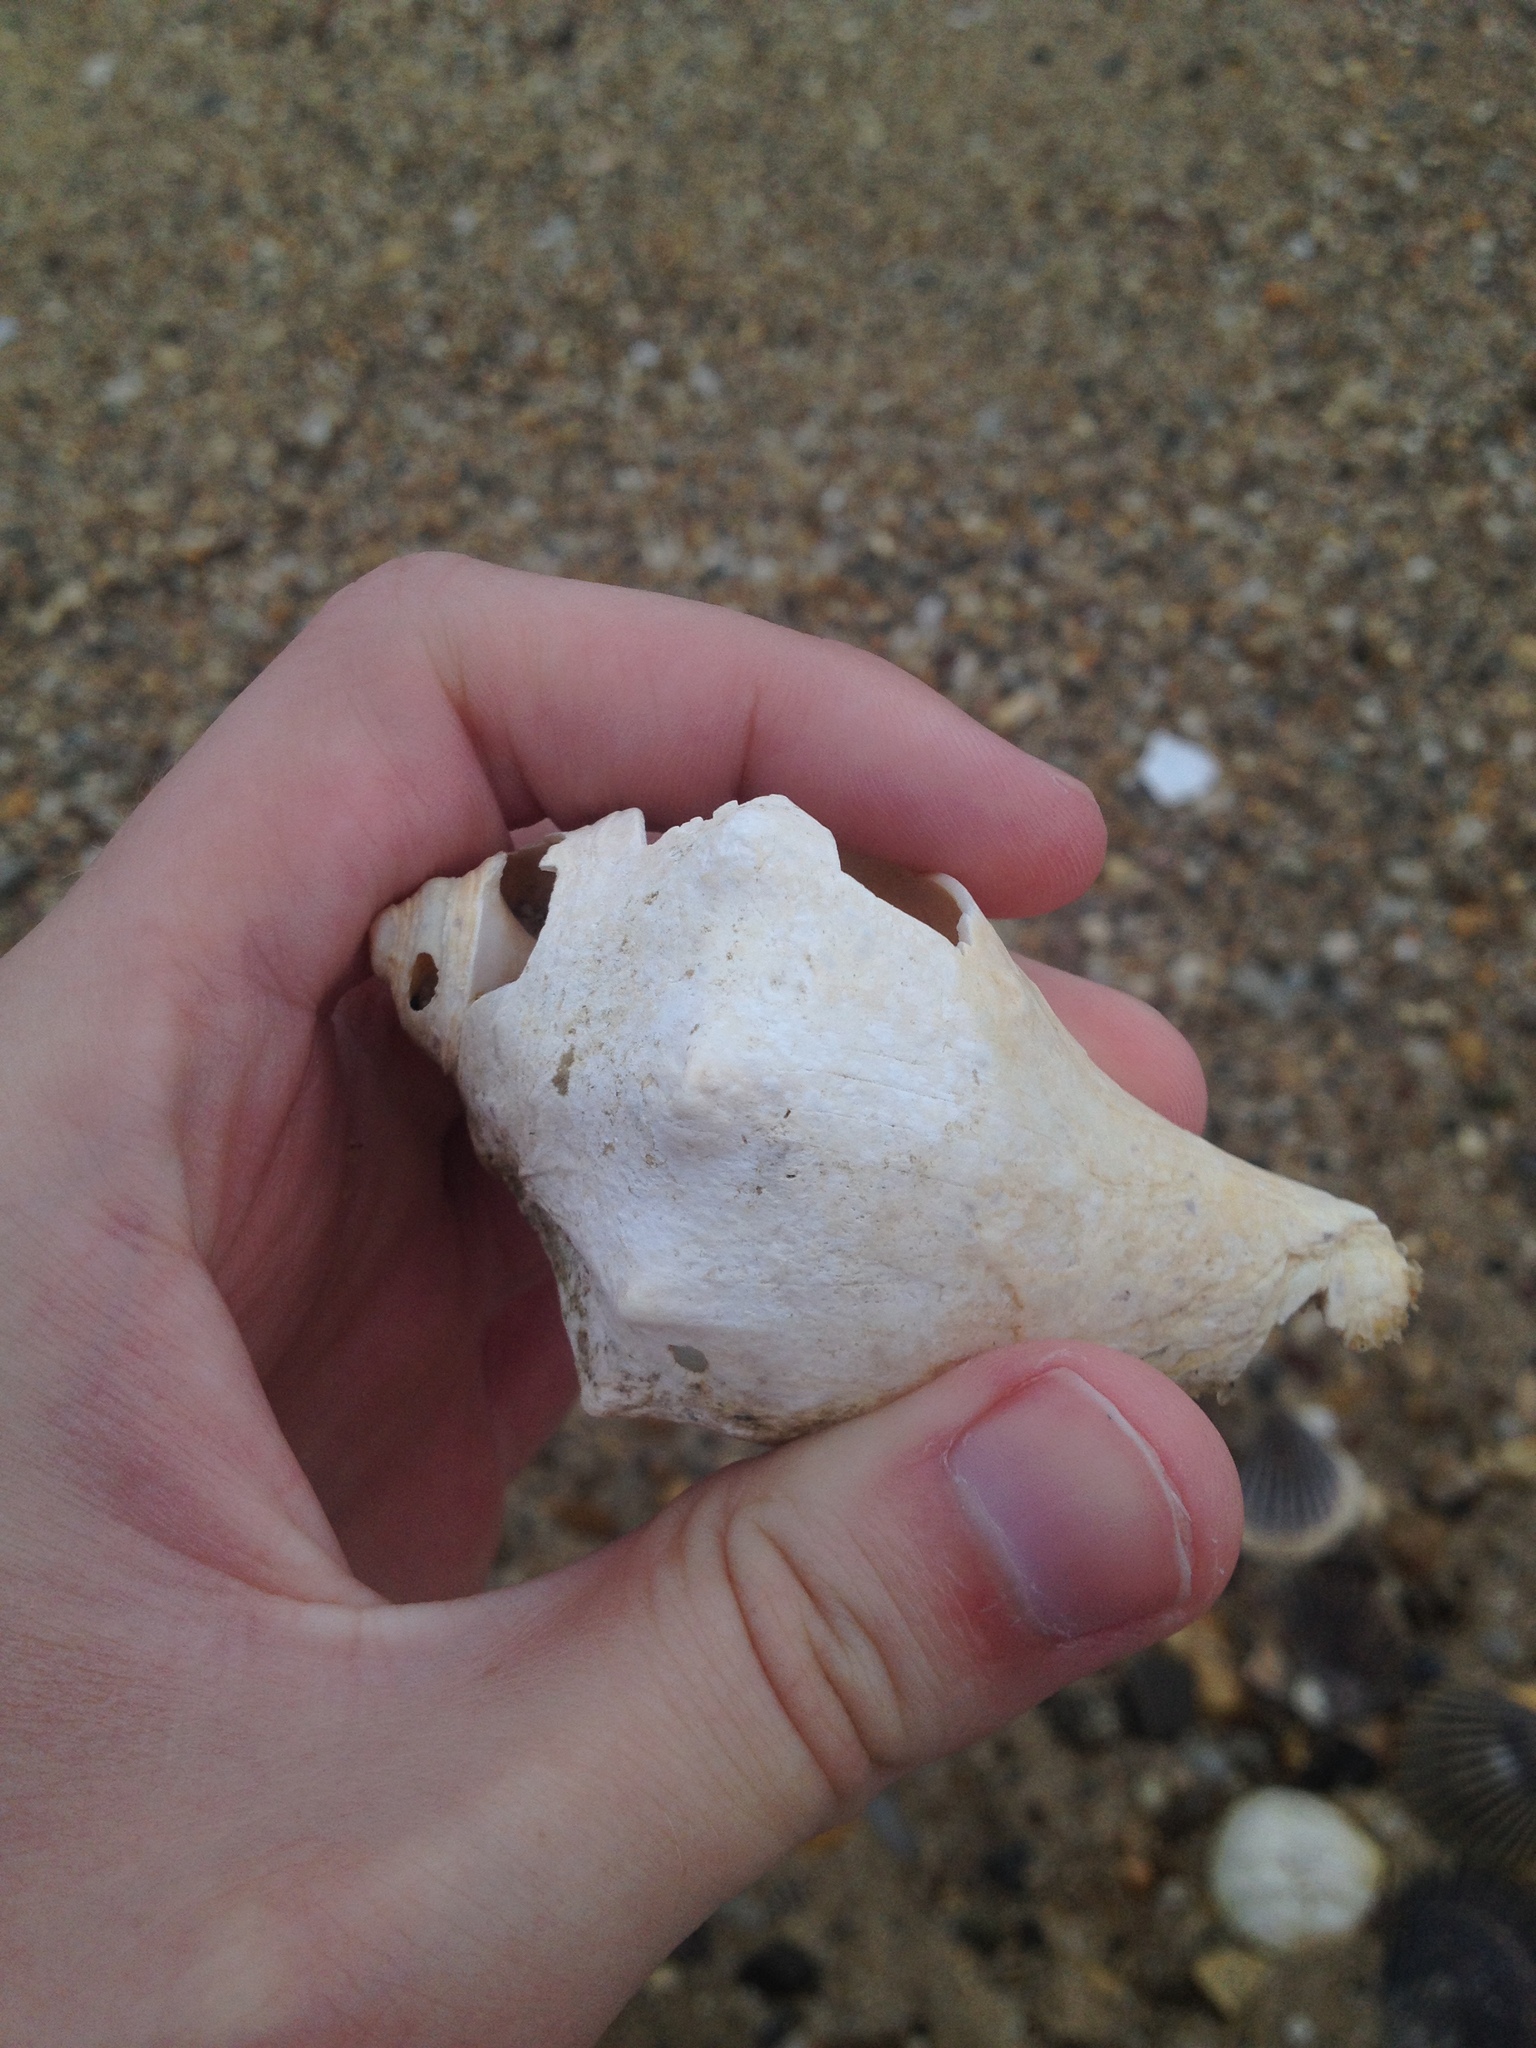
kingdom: Animalia
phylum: Mollusca
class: Gastropoda
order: Neogastropoda
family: Busyconidae
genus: Busycon
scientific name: Busycon carica
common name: Knobbed whelk
